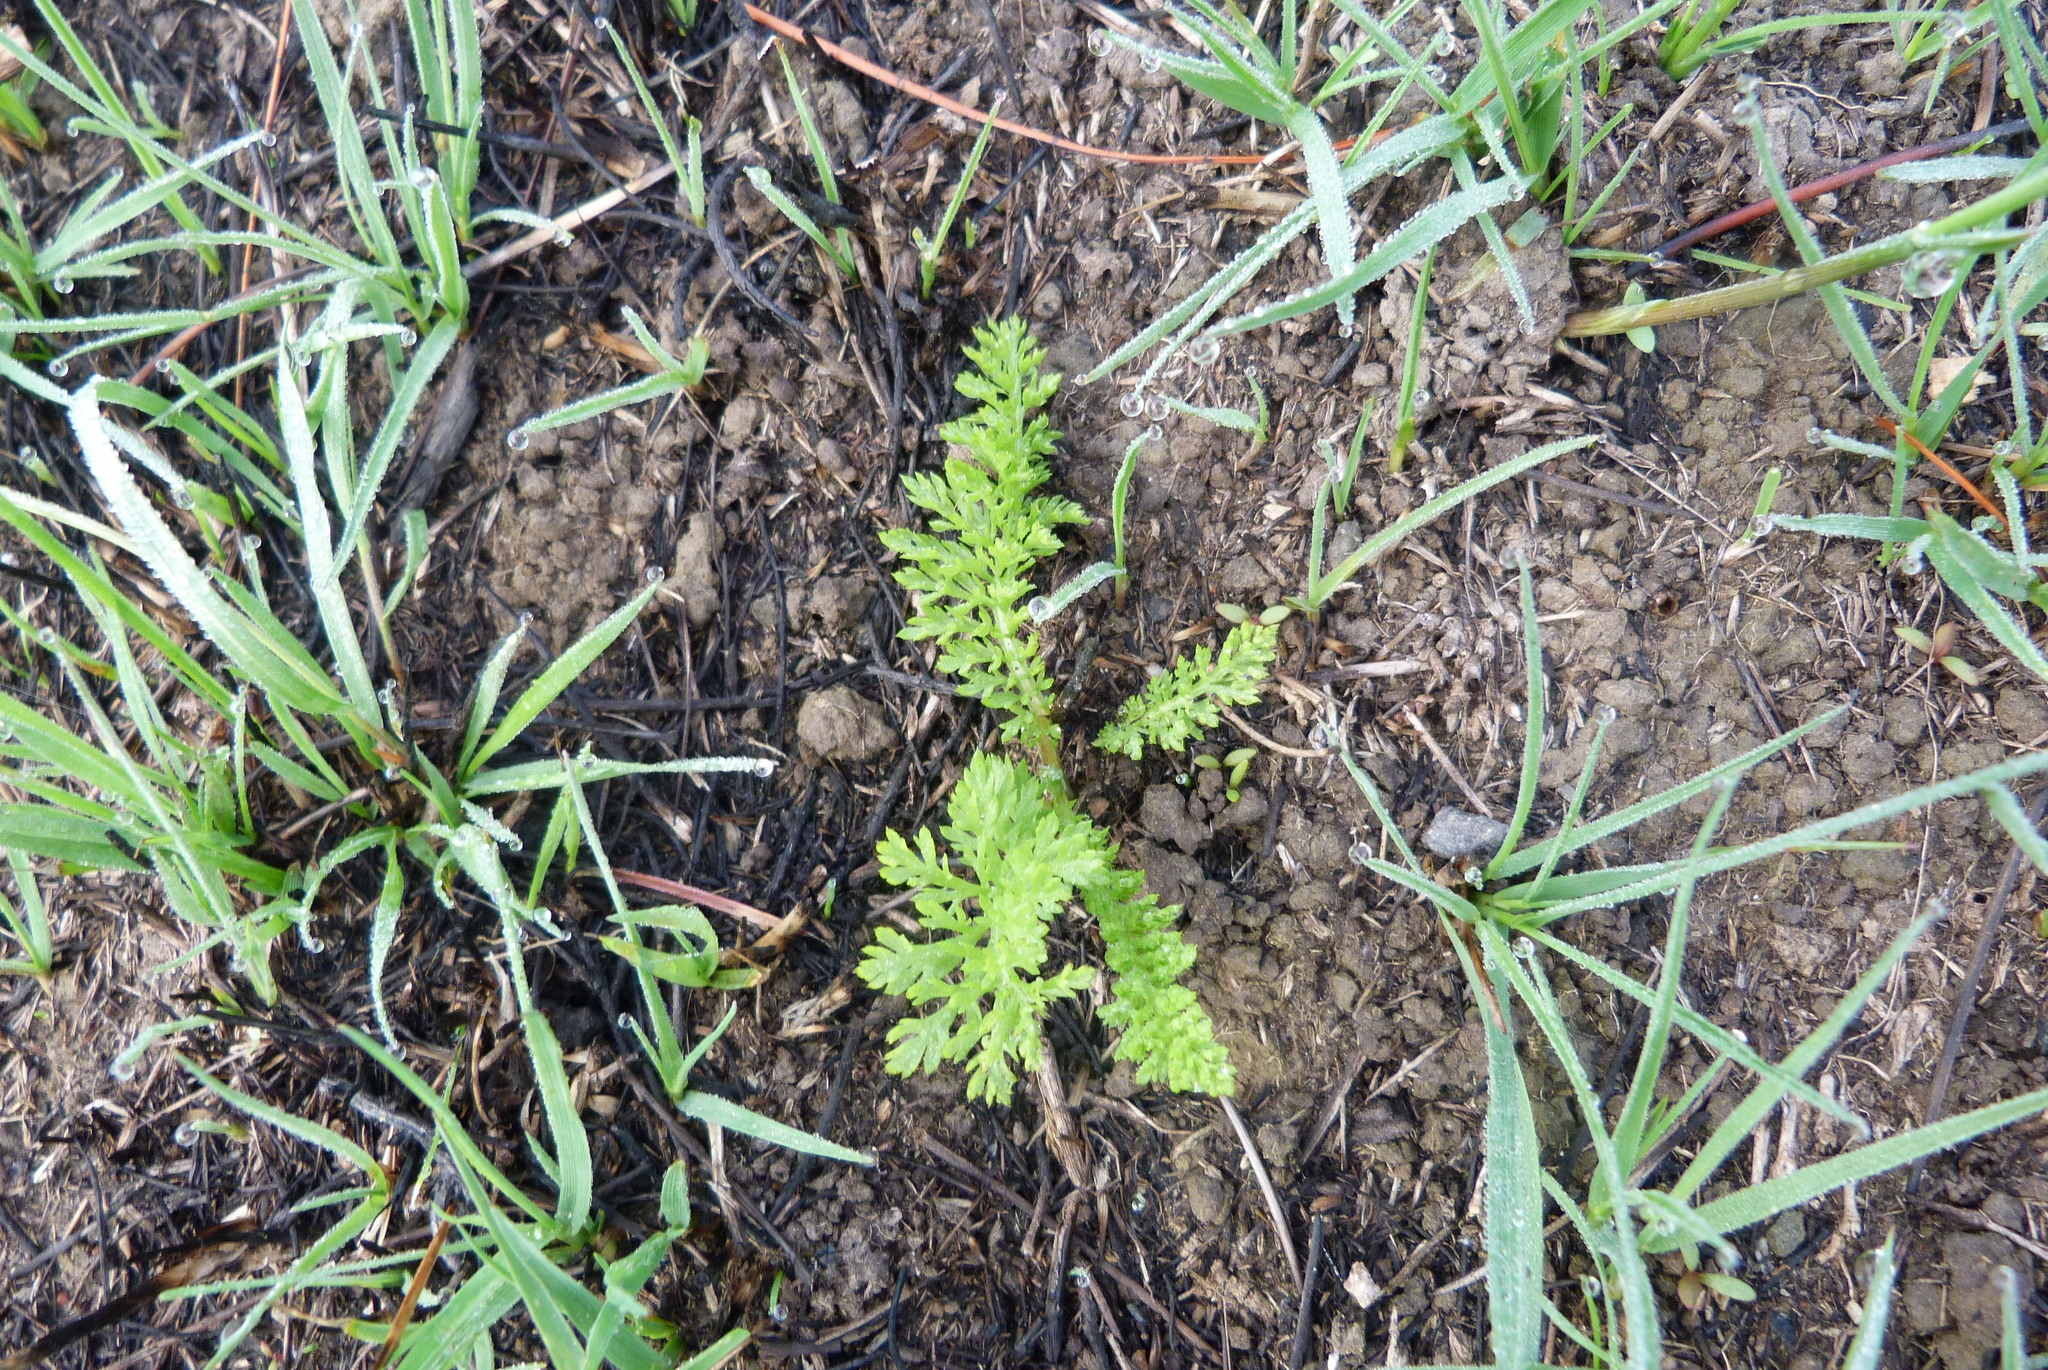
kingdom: Plantae
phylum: Tracheophyta
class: Magnoliopsida
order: Asterales
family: Asteraceae
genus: Achillea
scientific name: Achillea millefolium
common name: Yarrow
